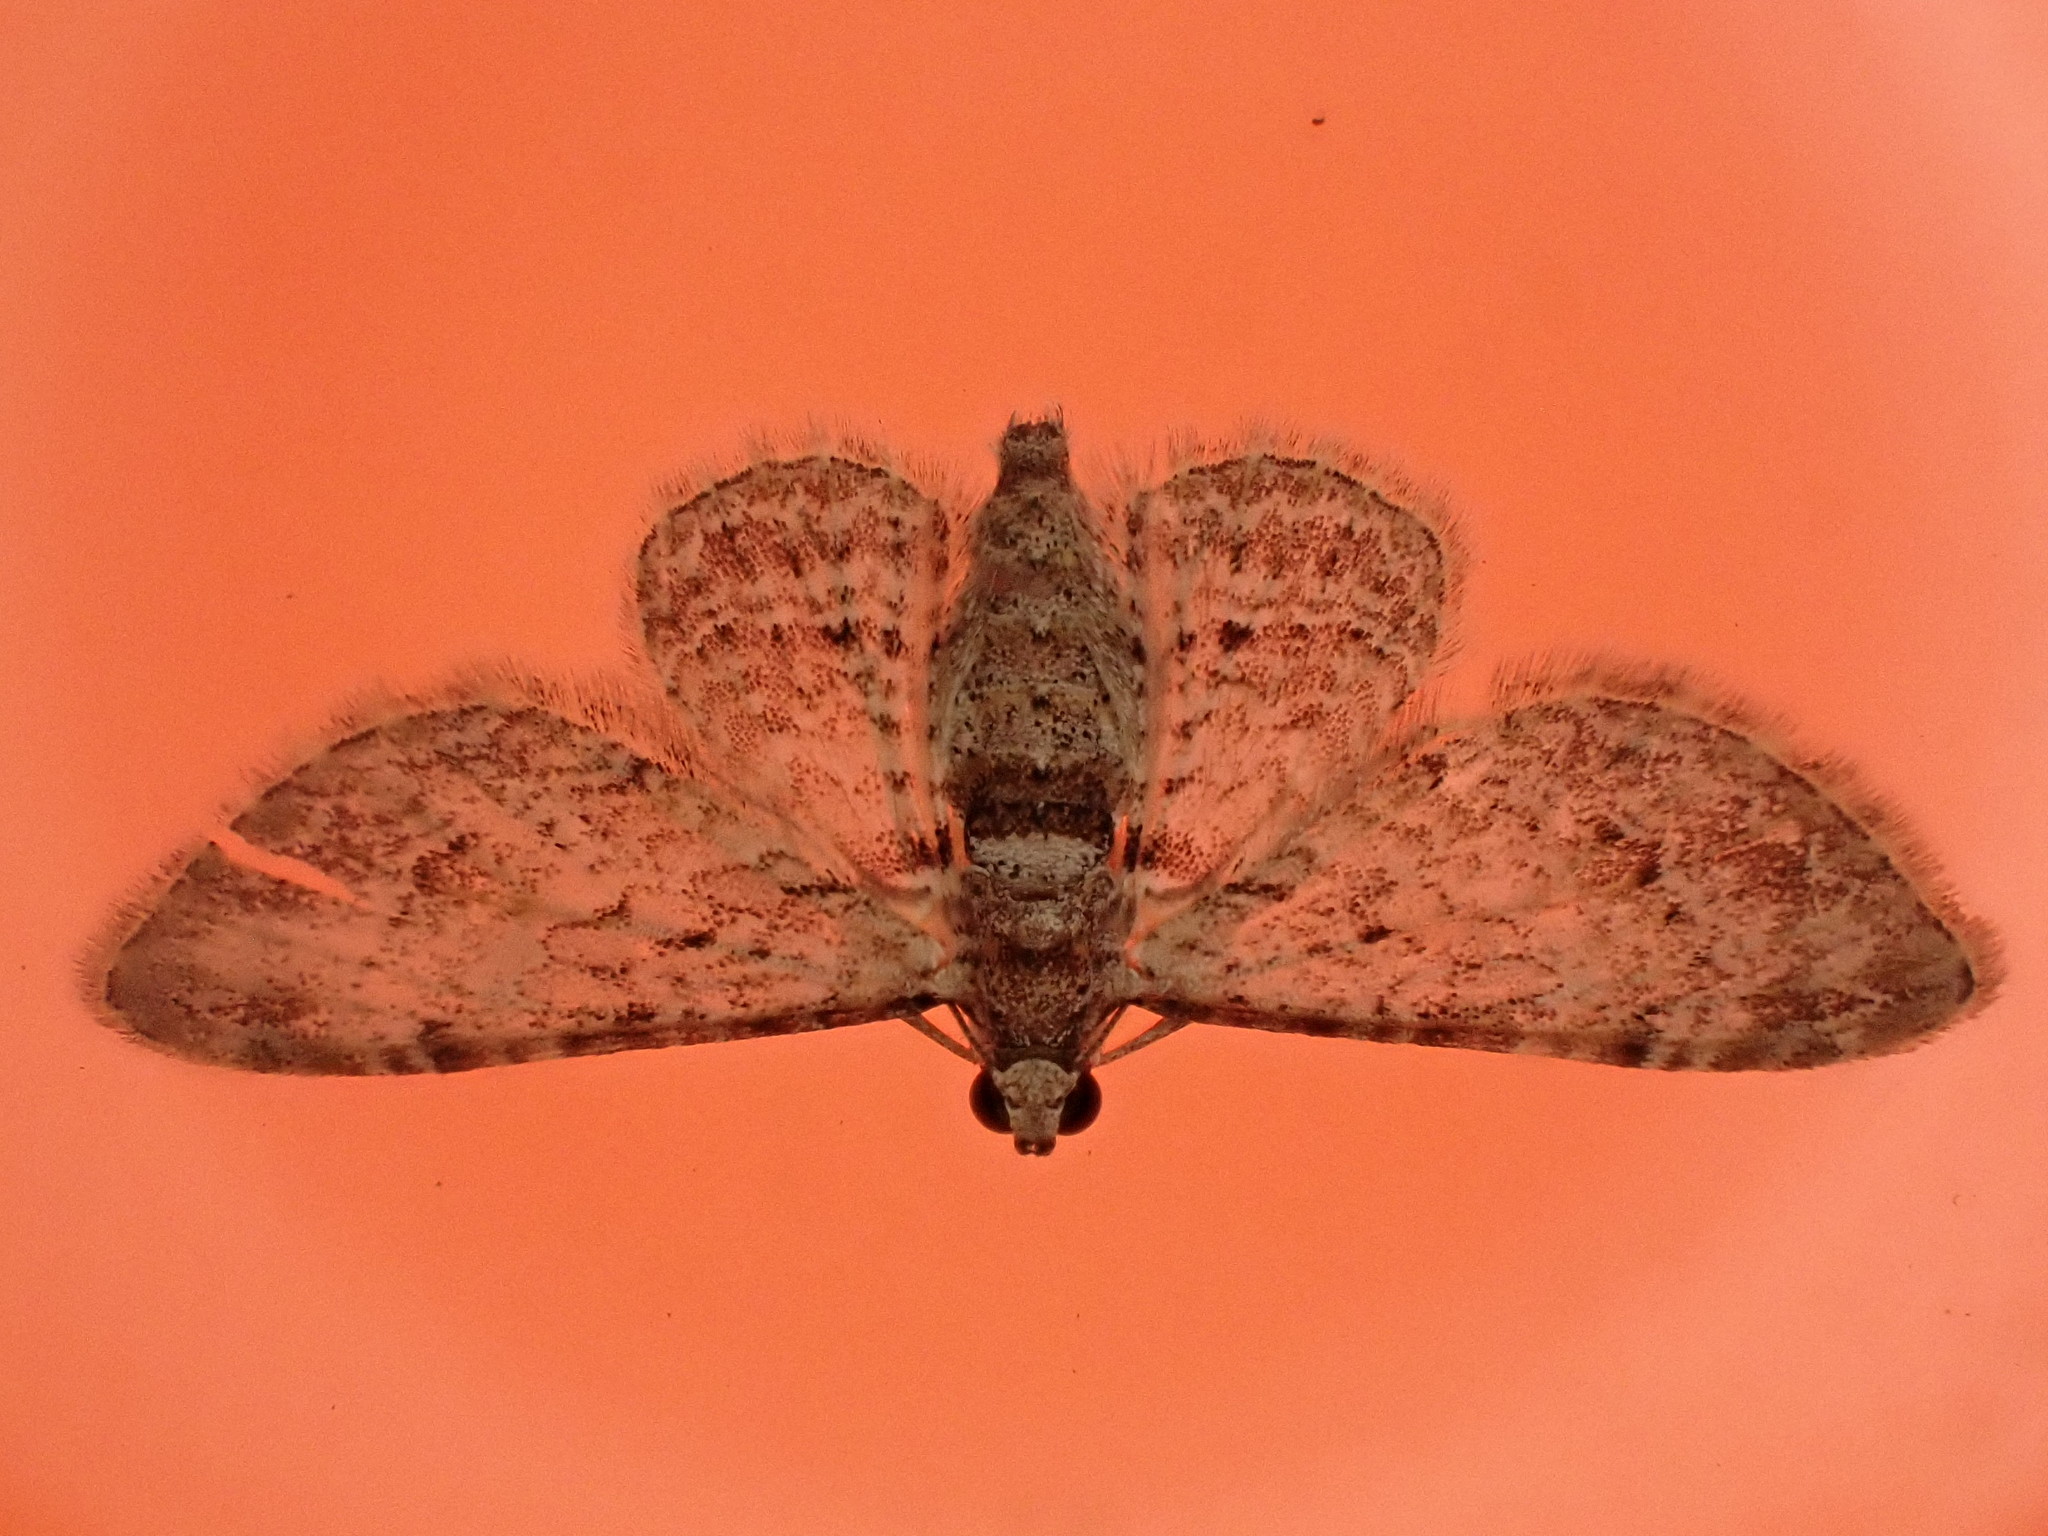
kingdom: Animalia
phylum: Arthropoda
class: Insecta
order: Lepidoptera
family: Geometridae
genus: Chloroclystis
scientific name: Chloroclystis insigillata
